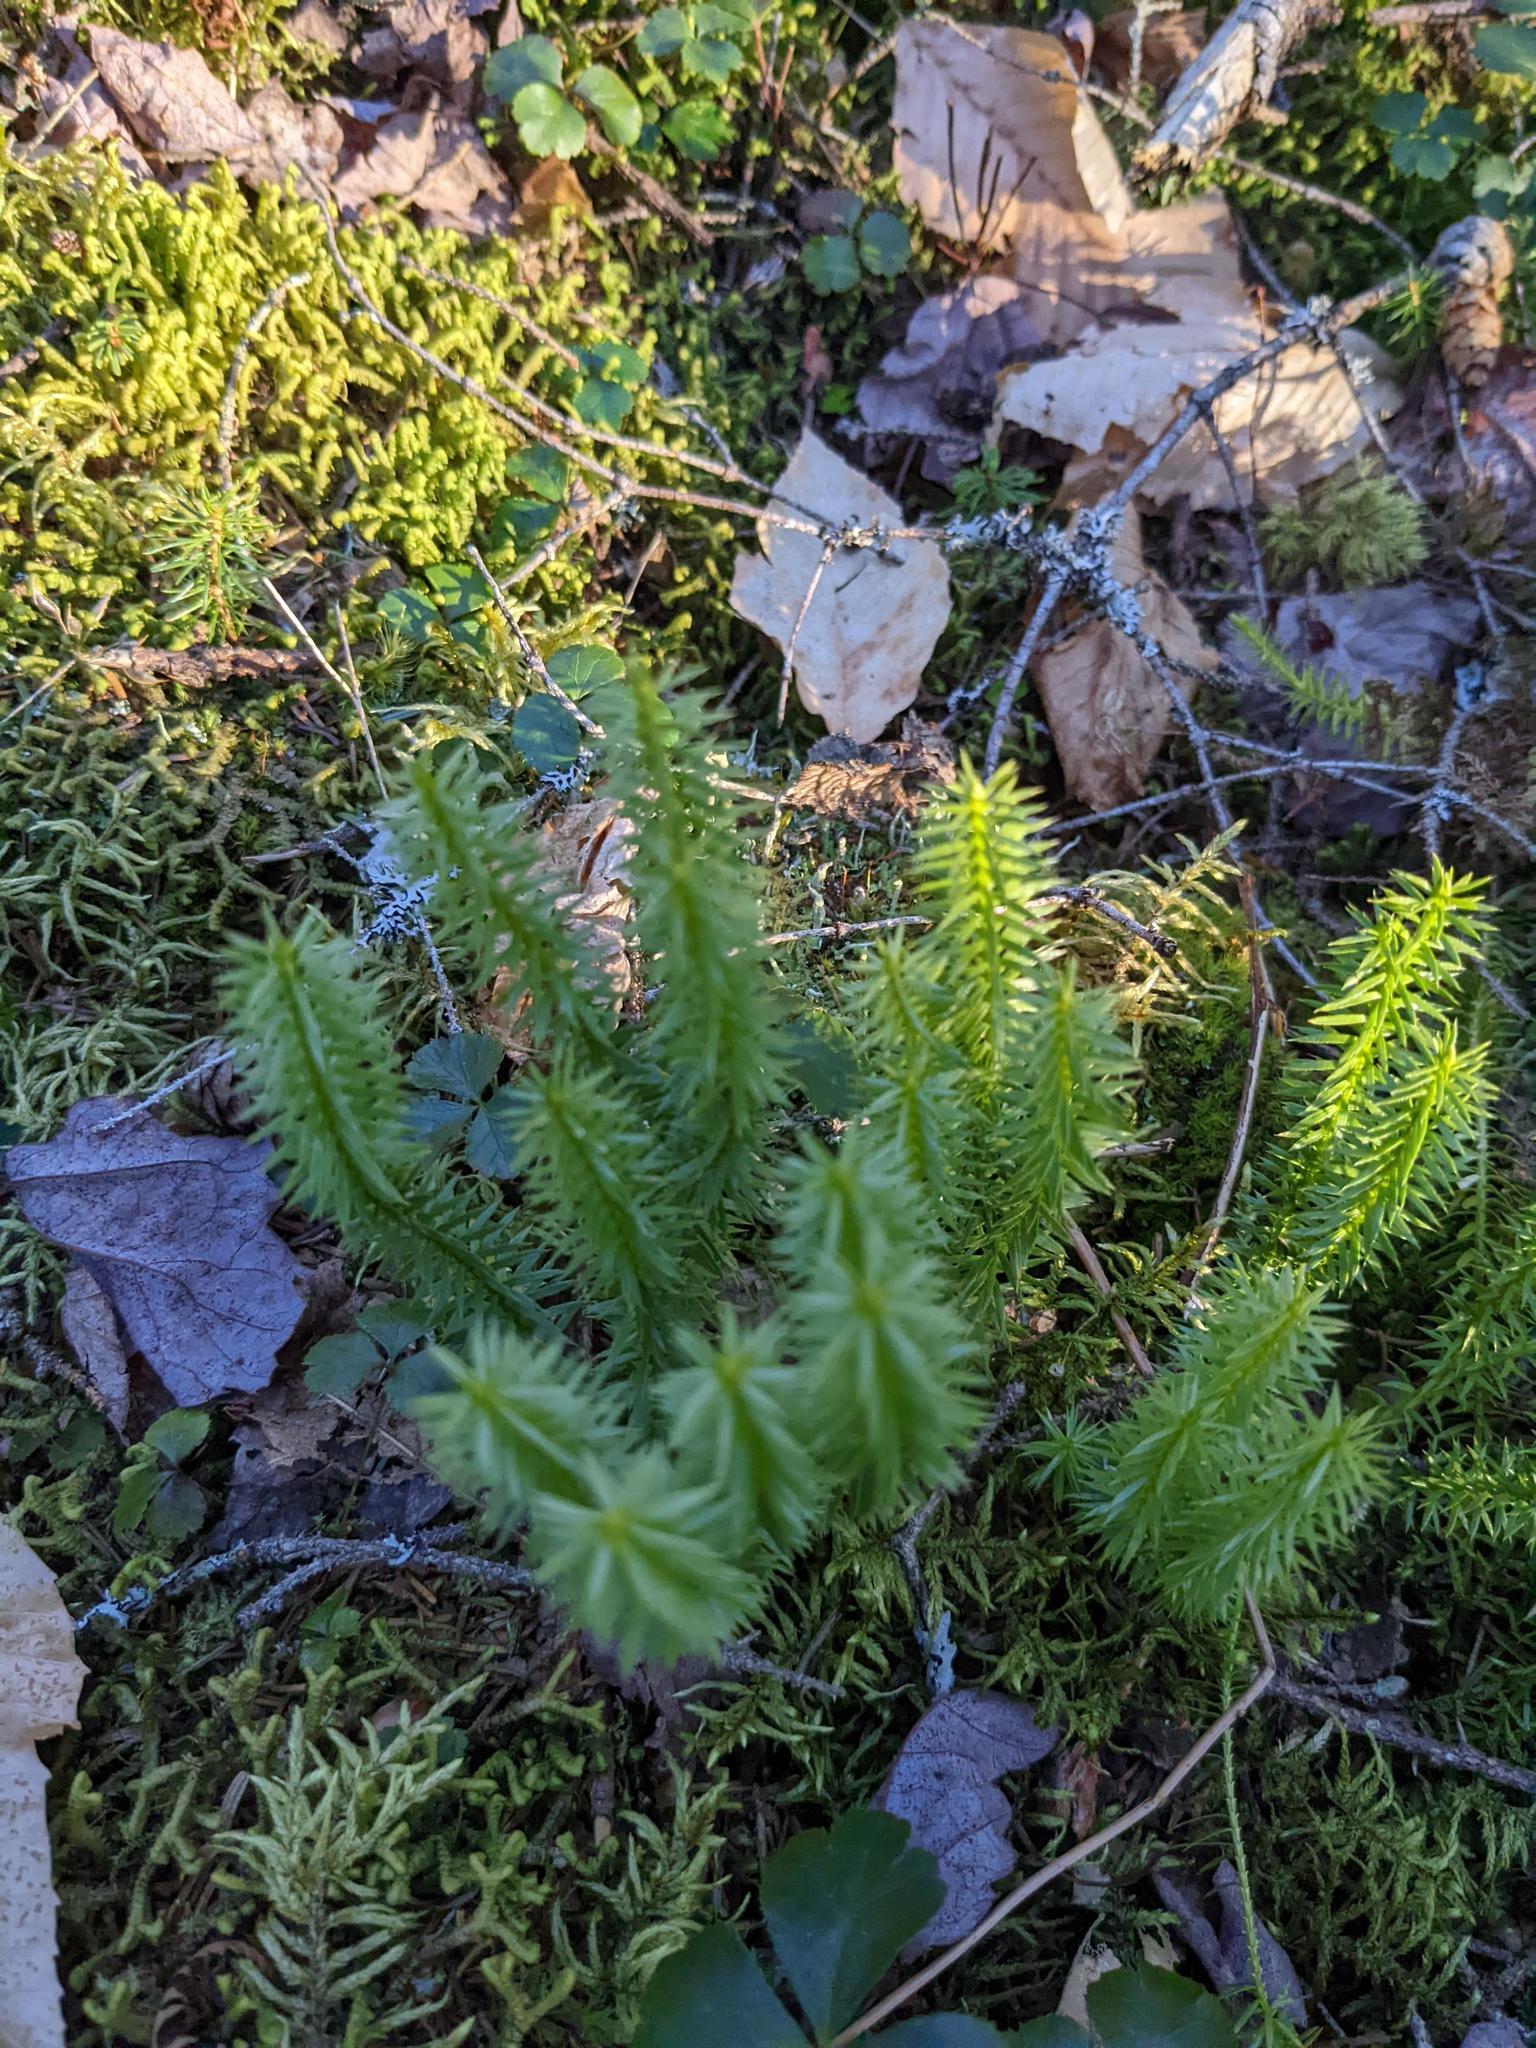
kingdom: Plantae
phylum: Tracheophyta
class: Lycopodiopsida
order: Lycopodiales
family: Lycopodiaceae
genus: Spinulum
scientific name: Spinulum annotinum
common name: Interrupted club-moss
